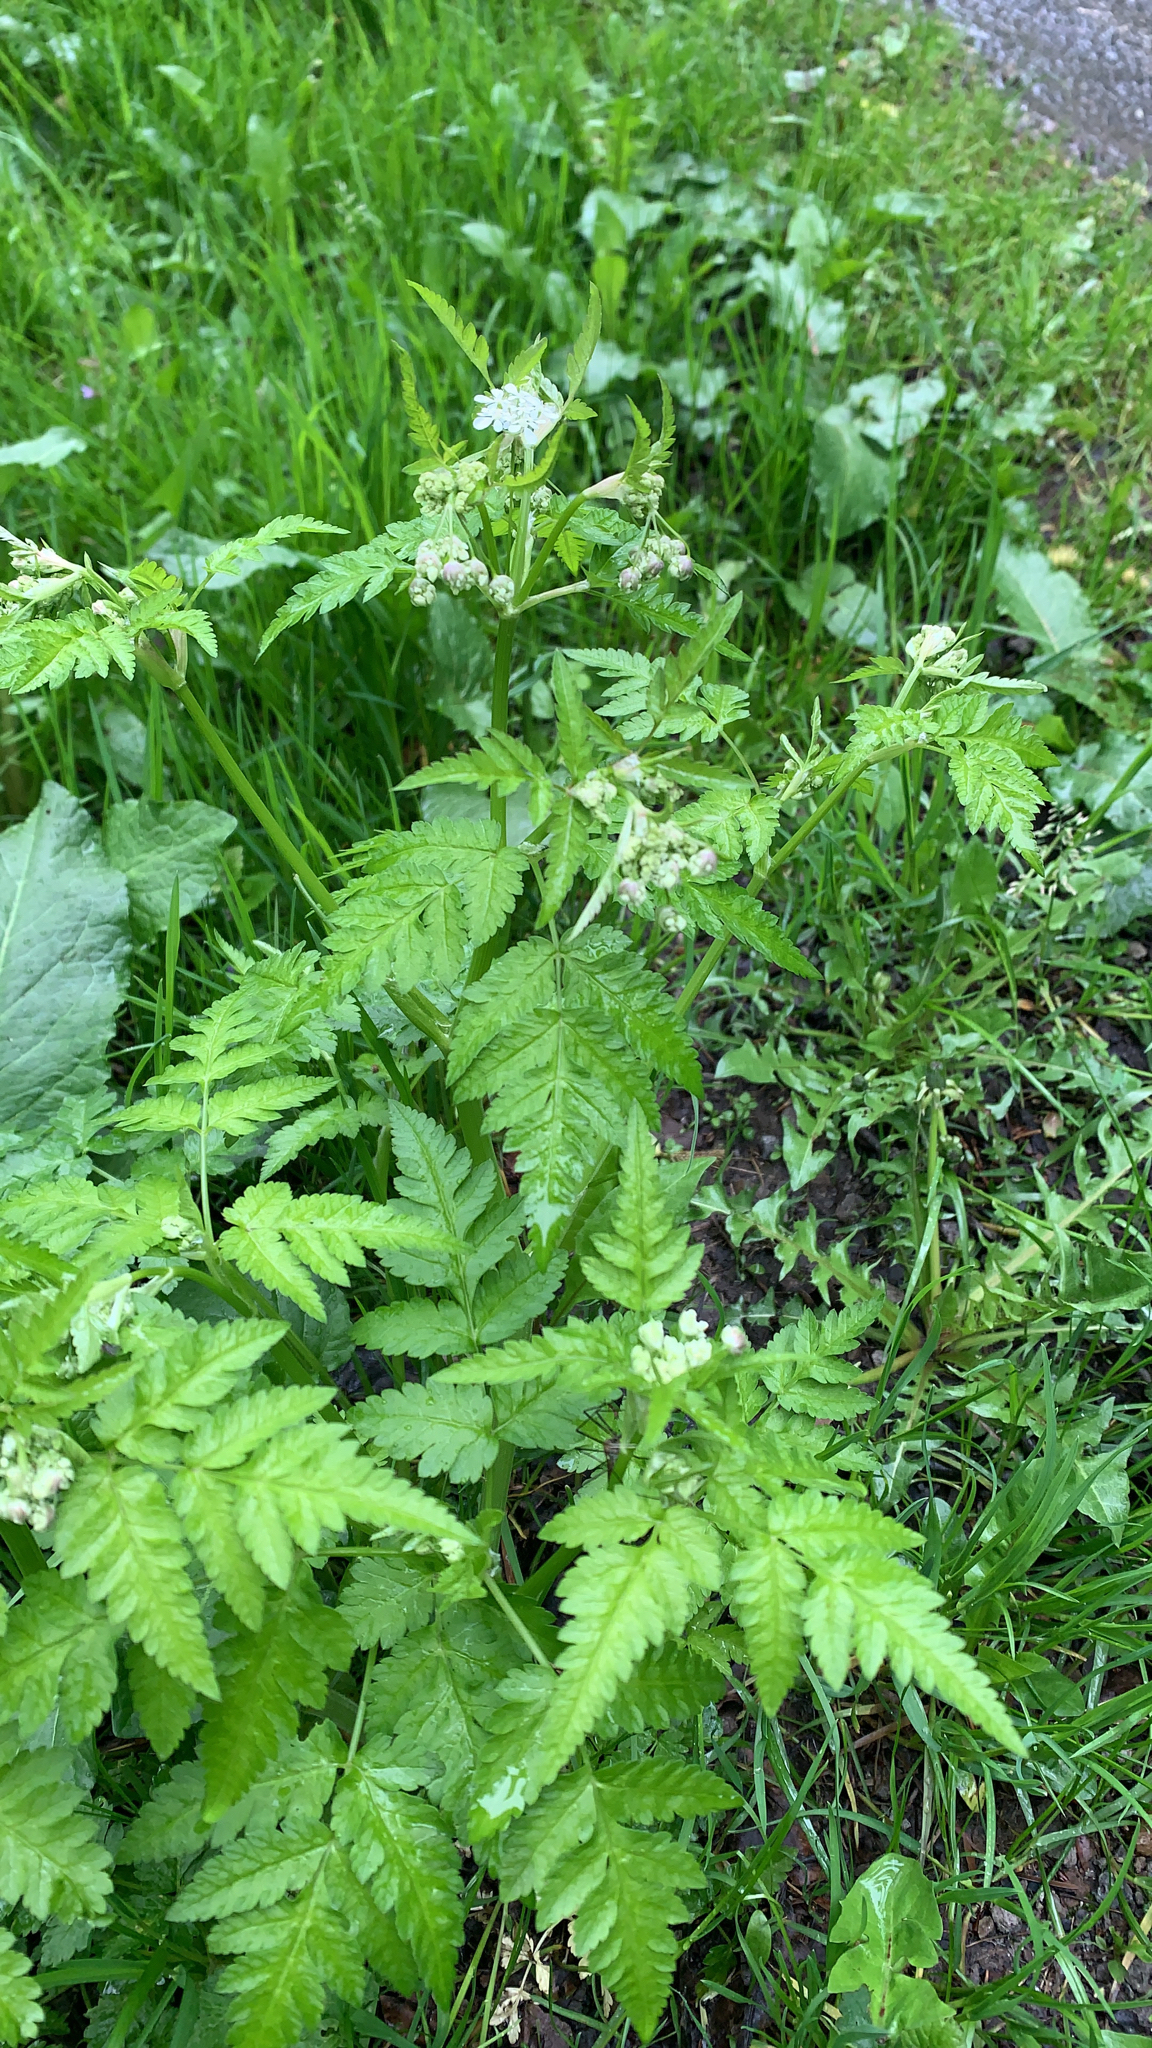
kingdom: Plantae
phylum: Tracheophyta
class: Magnoliopsida
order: Apiales
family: Apiaceae
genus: Anthriscus
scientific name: Anthriscus nitida
